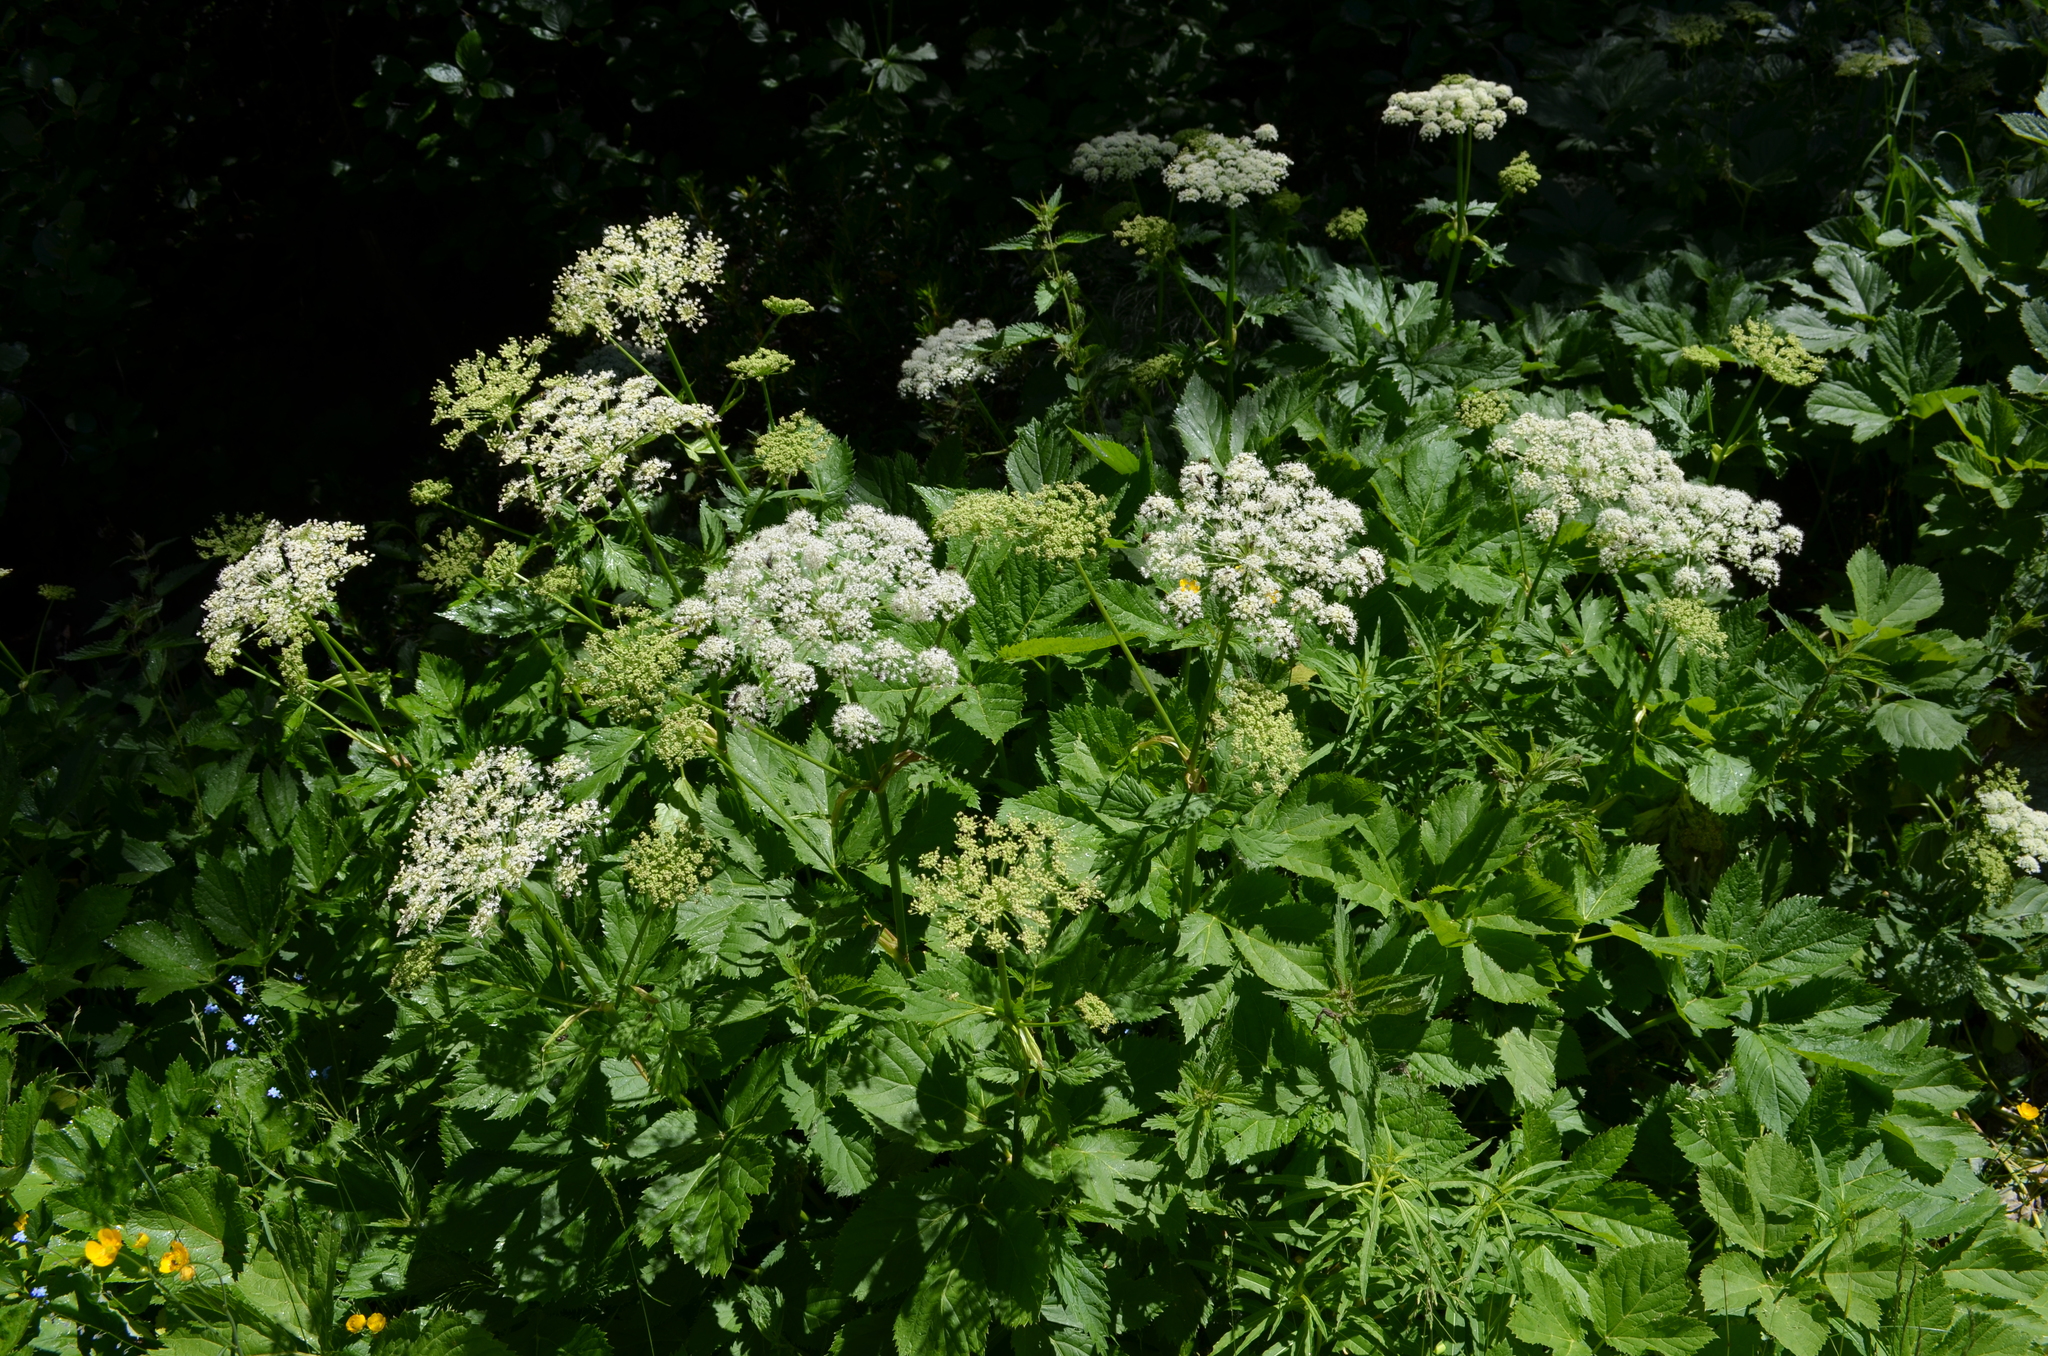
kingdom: Plantae
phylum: Tracheophyta
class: Magnoliopsida
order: Apiales
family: Apiaceae
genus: Imperatoria
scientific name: Imperatoria ostruthium
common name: Masterwort
